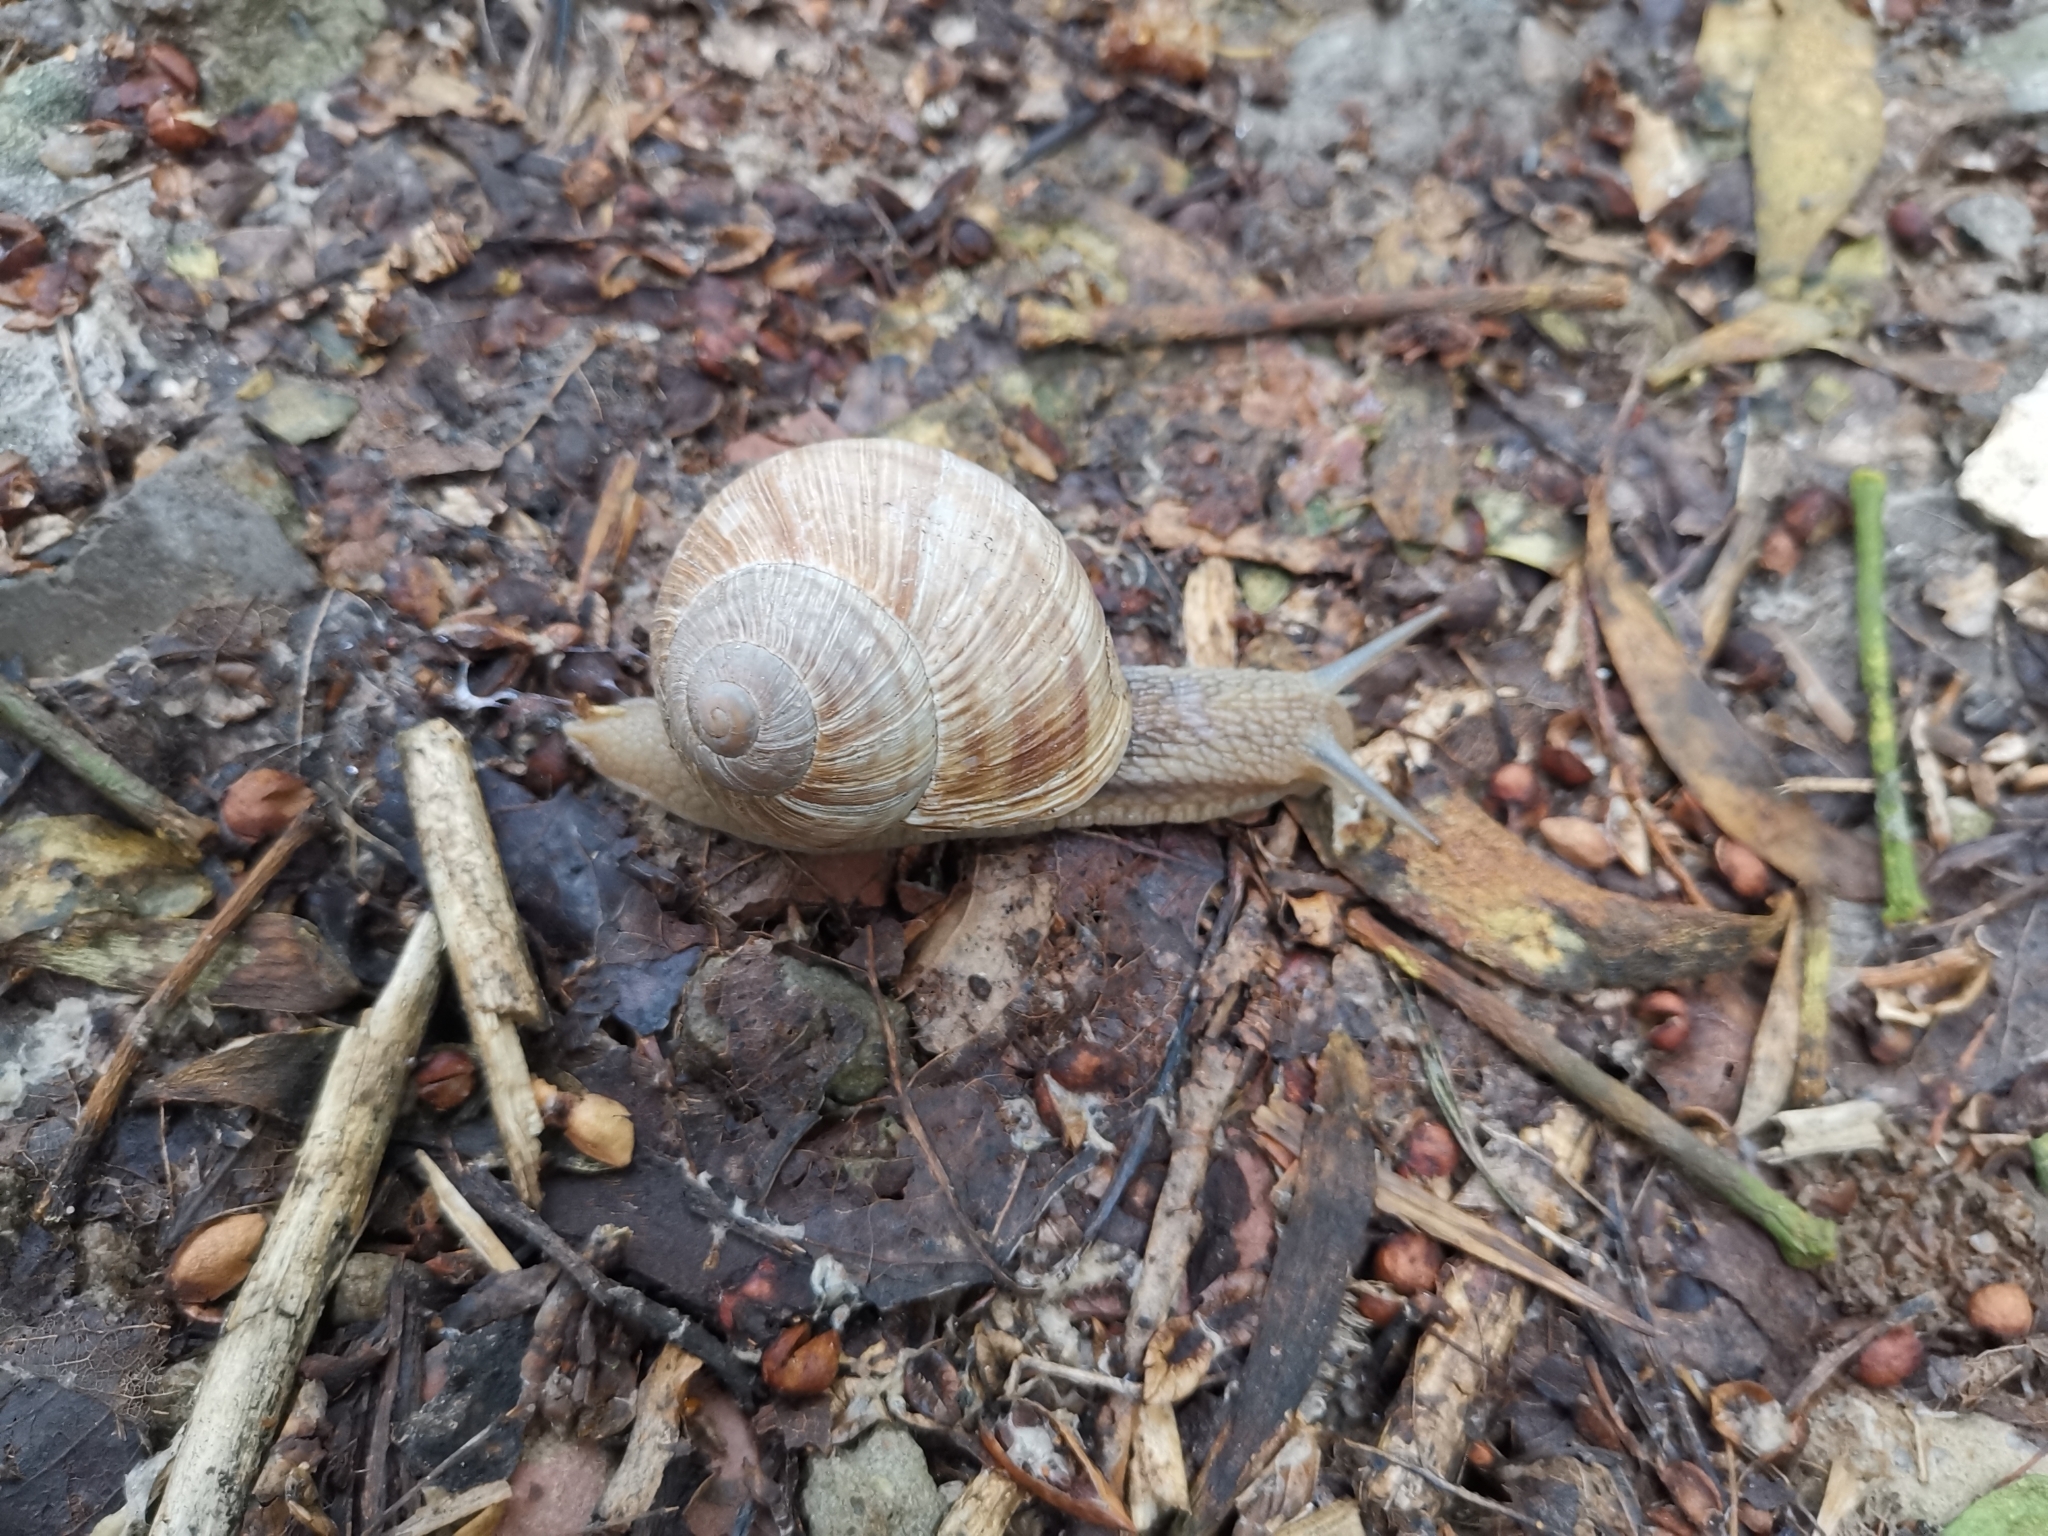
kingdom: Animalia
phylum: Mollusca
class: Gastropoda
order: Stylommatophora
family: Helicidae
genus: Helix
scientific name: Helix pomatia
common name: Roman snail
